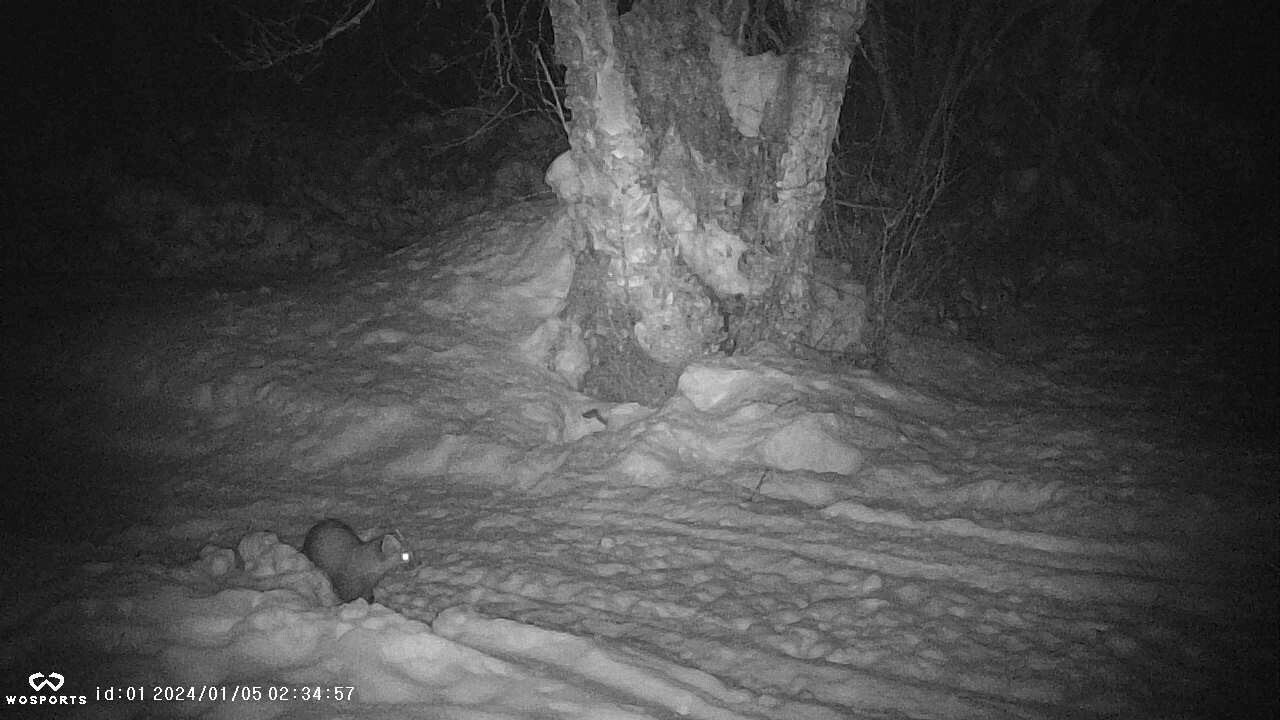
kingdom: Animalia
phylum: Chordata
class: Mammalia
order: Carnivora
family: Mustelidae
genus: Martes
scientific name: Martes americana
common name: American marten
